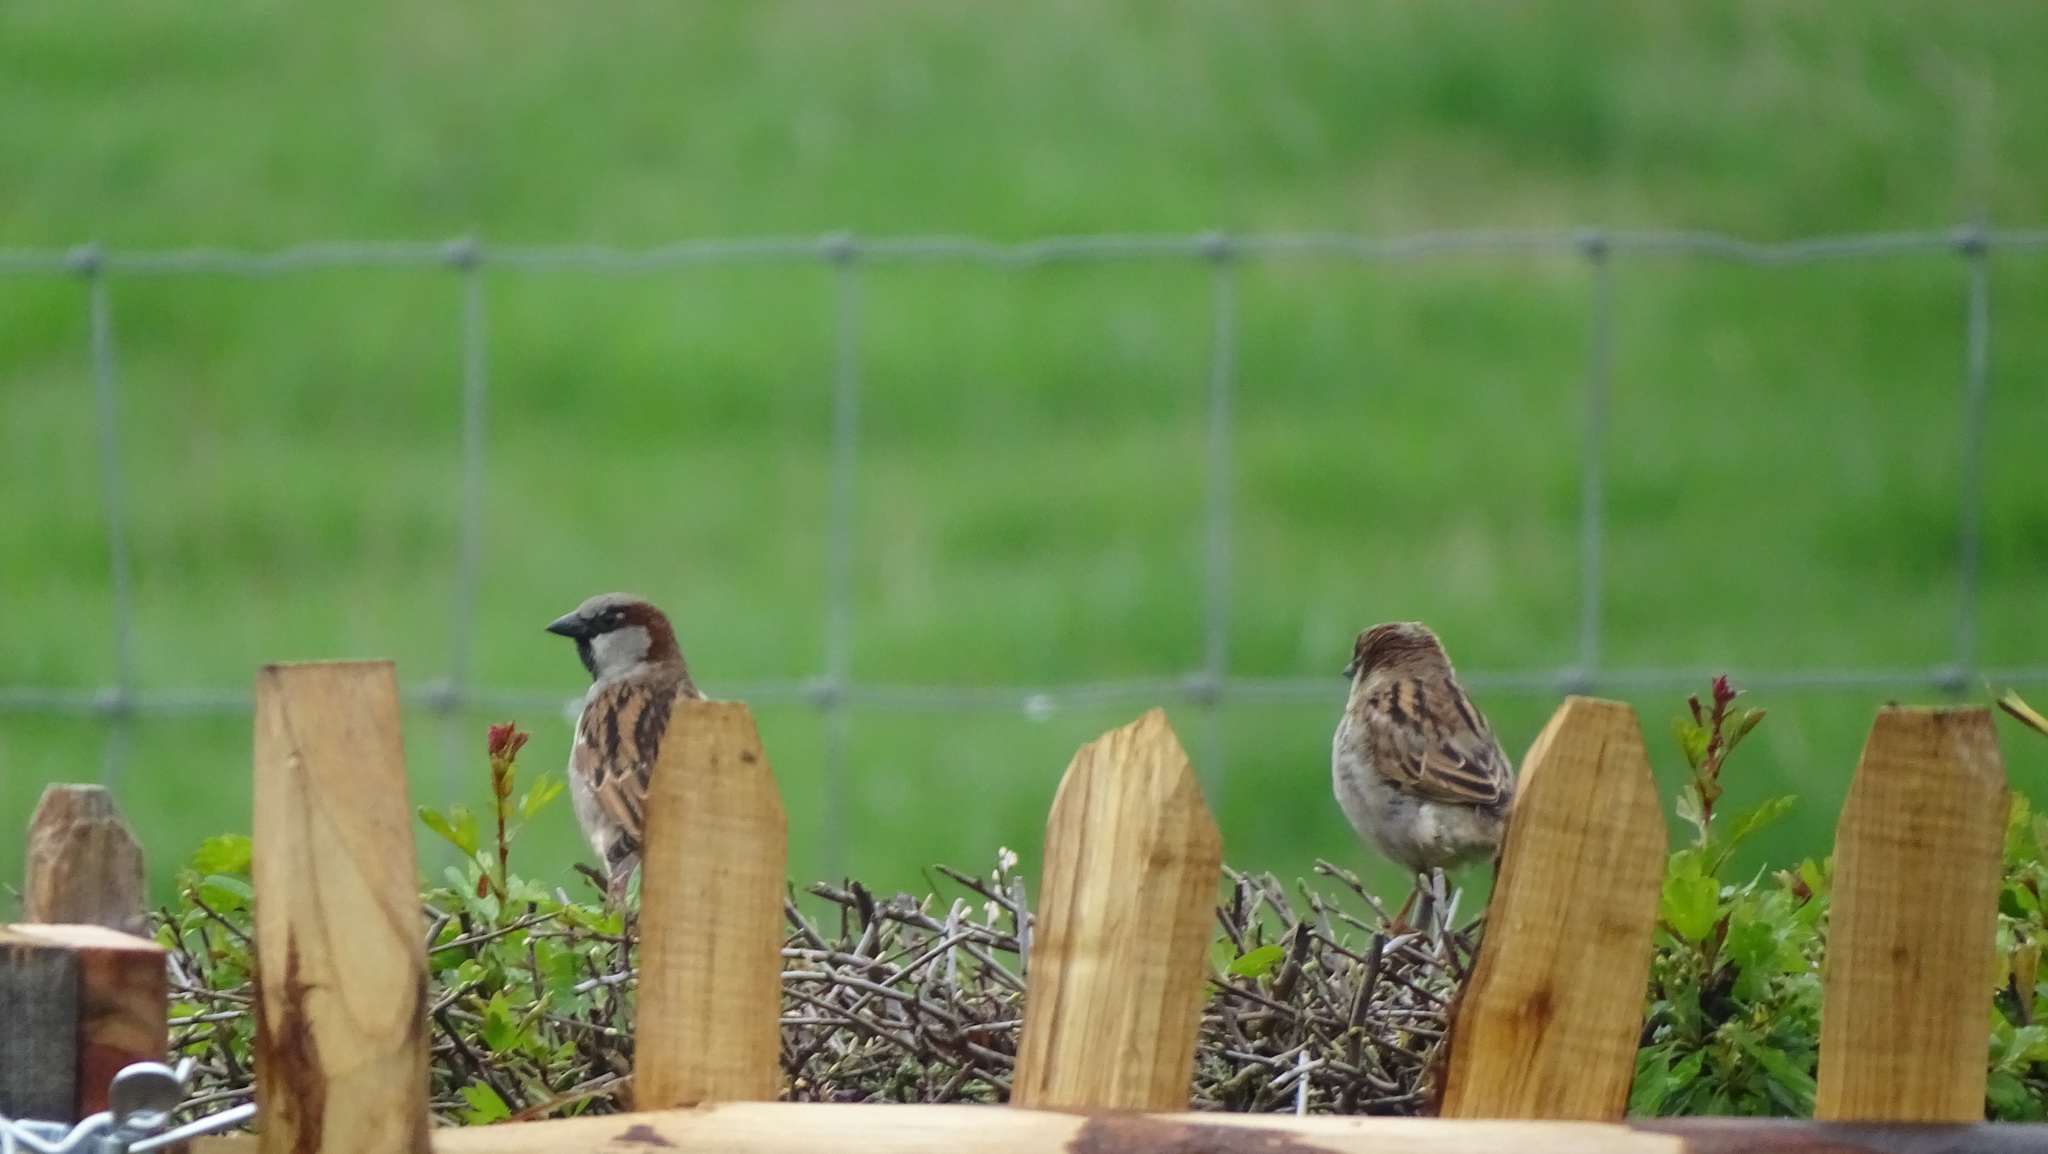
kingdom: Animalia
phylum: Chordata
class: Aves
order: Passeriformes
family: Passeridae
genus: Passer
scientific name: Passer domesticus
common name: House sparrow
